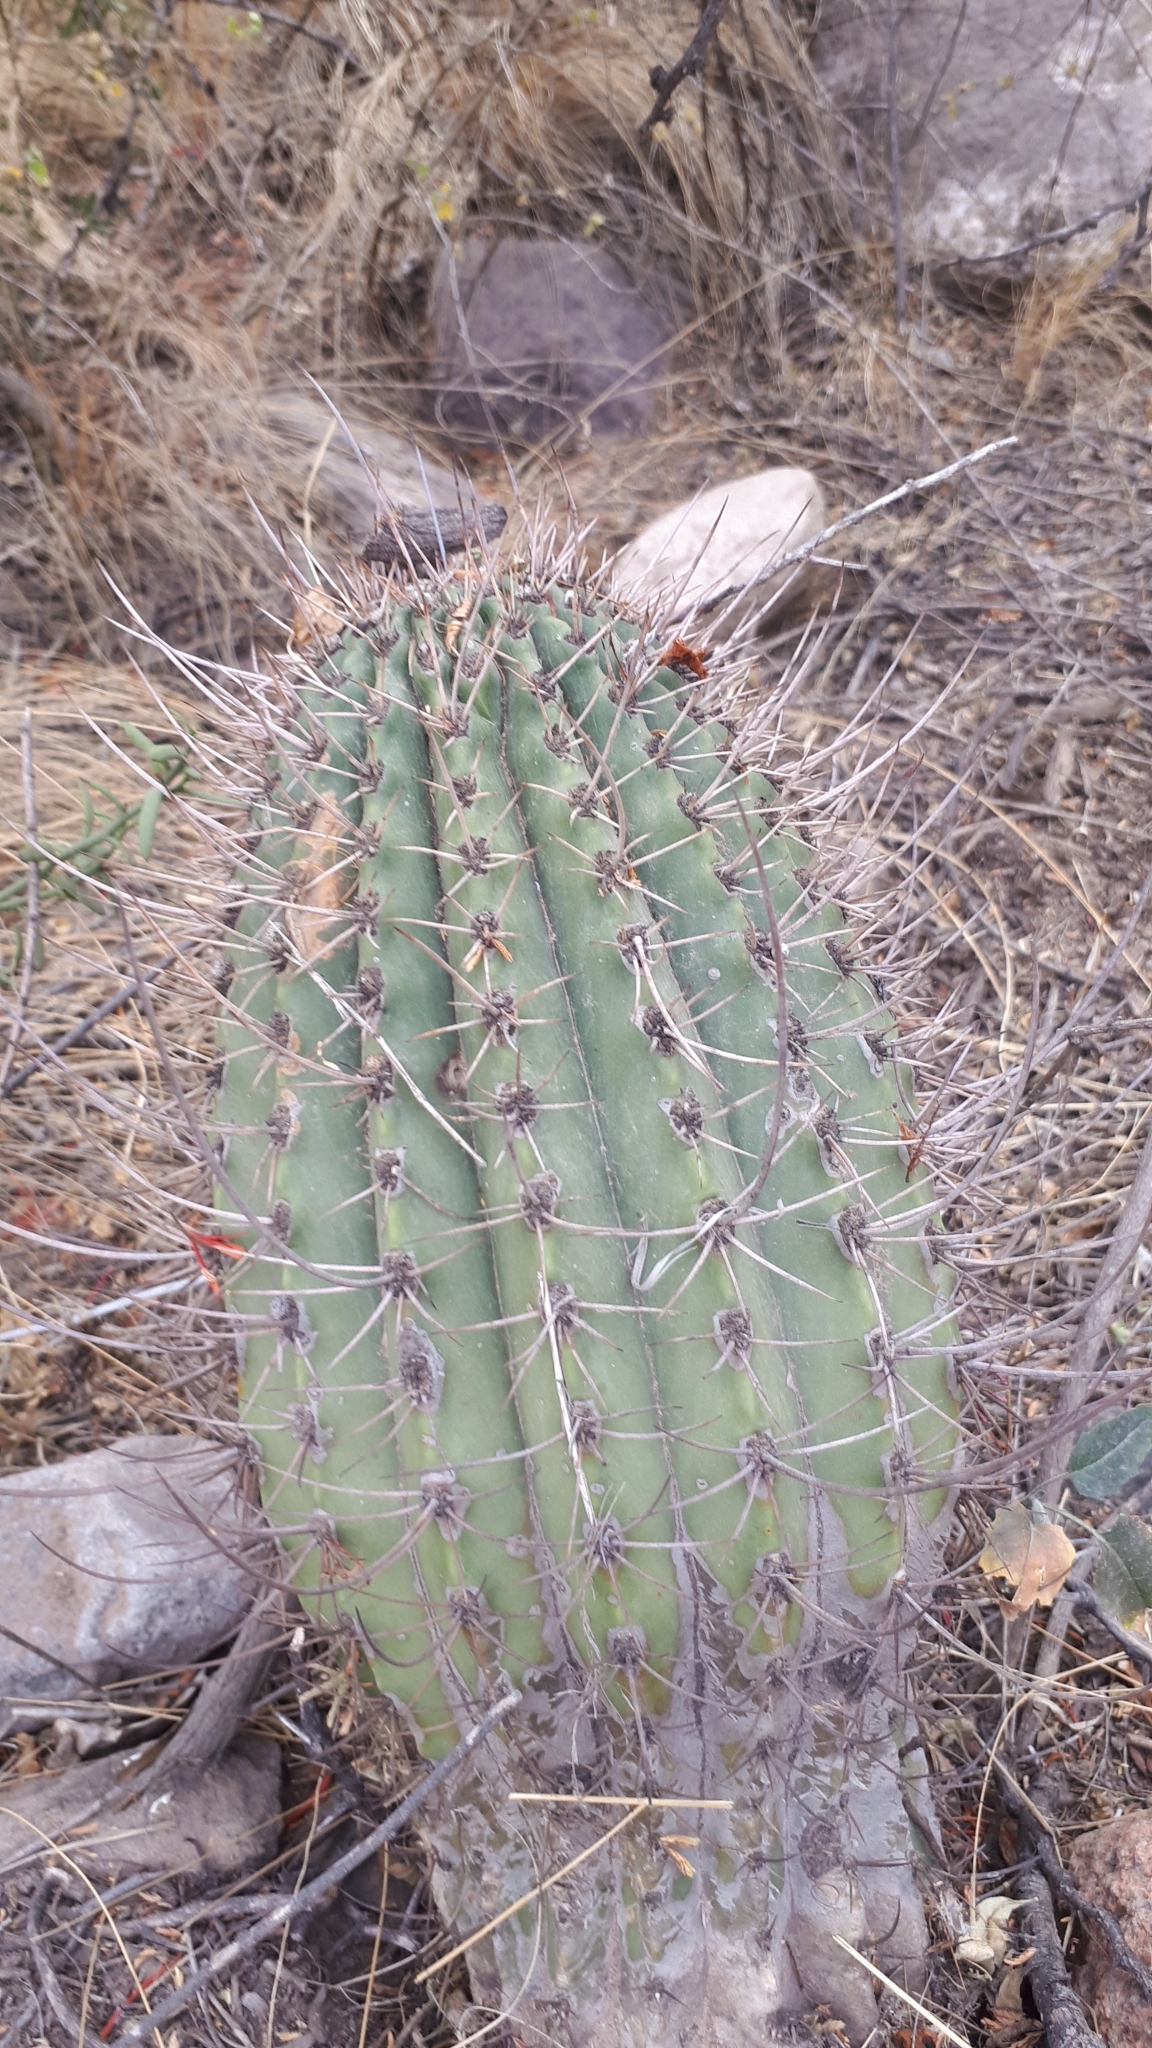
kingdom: Plantae
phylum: Tracheophyta
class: Magnoliopsida
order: Caryophyllales
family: Cactaceae
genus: Acanthocalycium
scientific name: Acanthocalycium leucanthum
